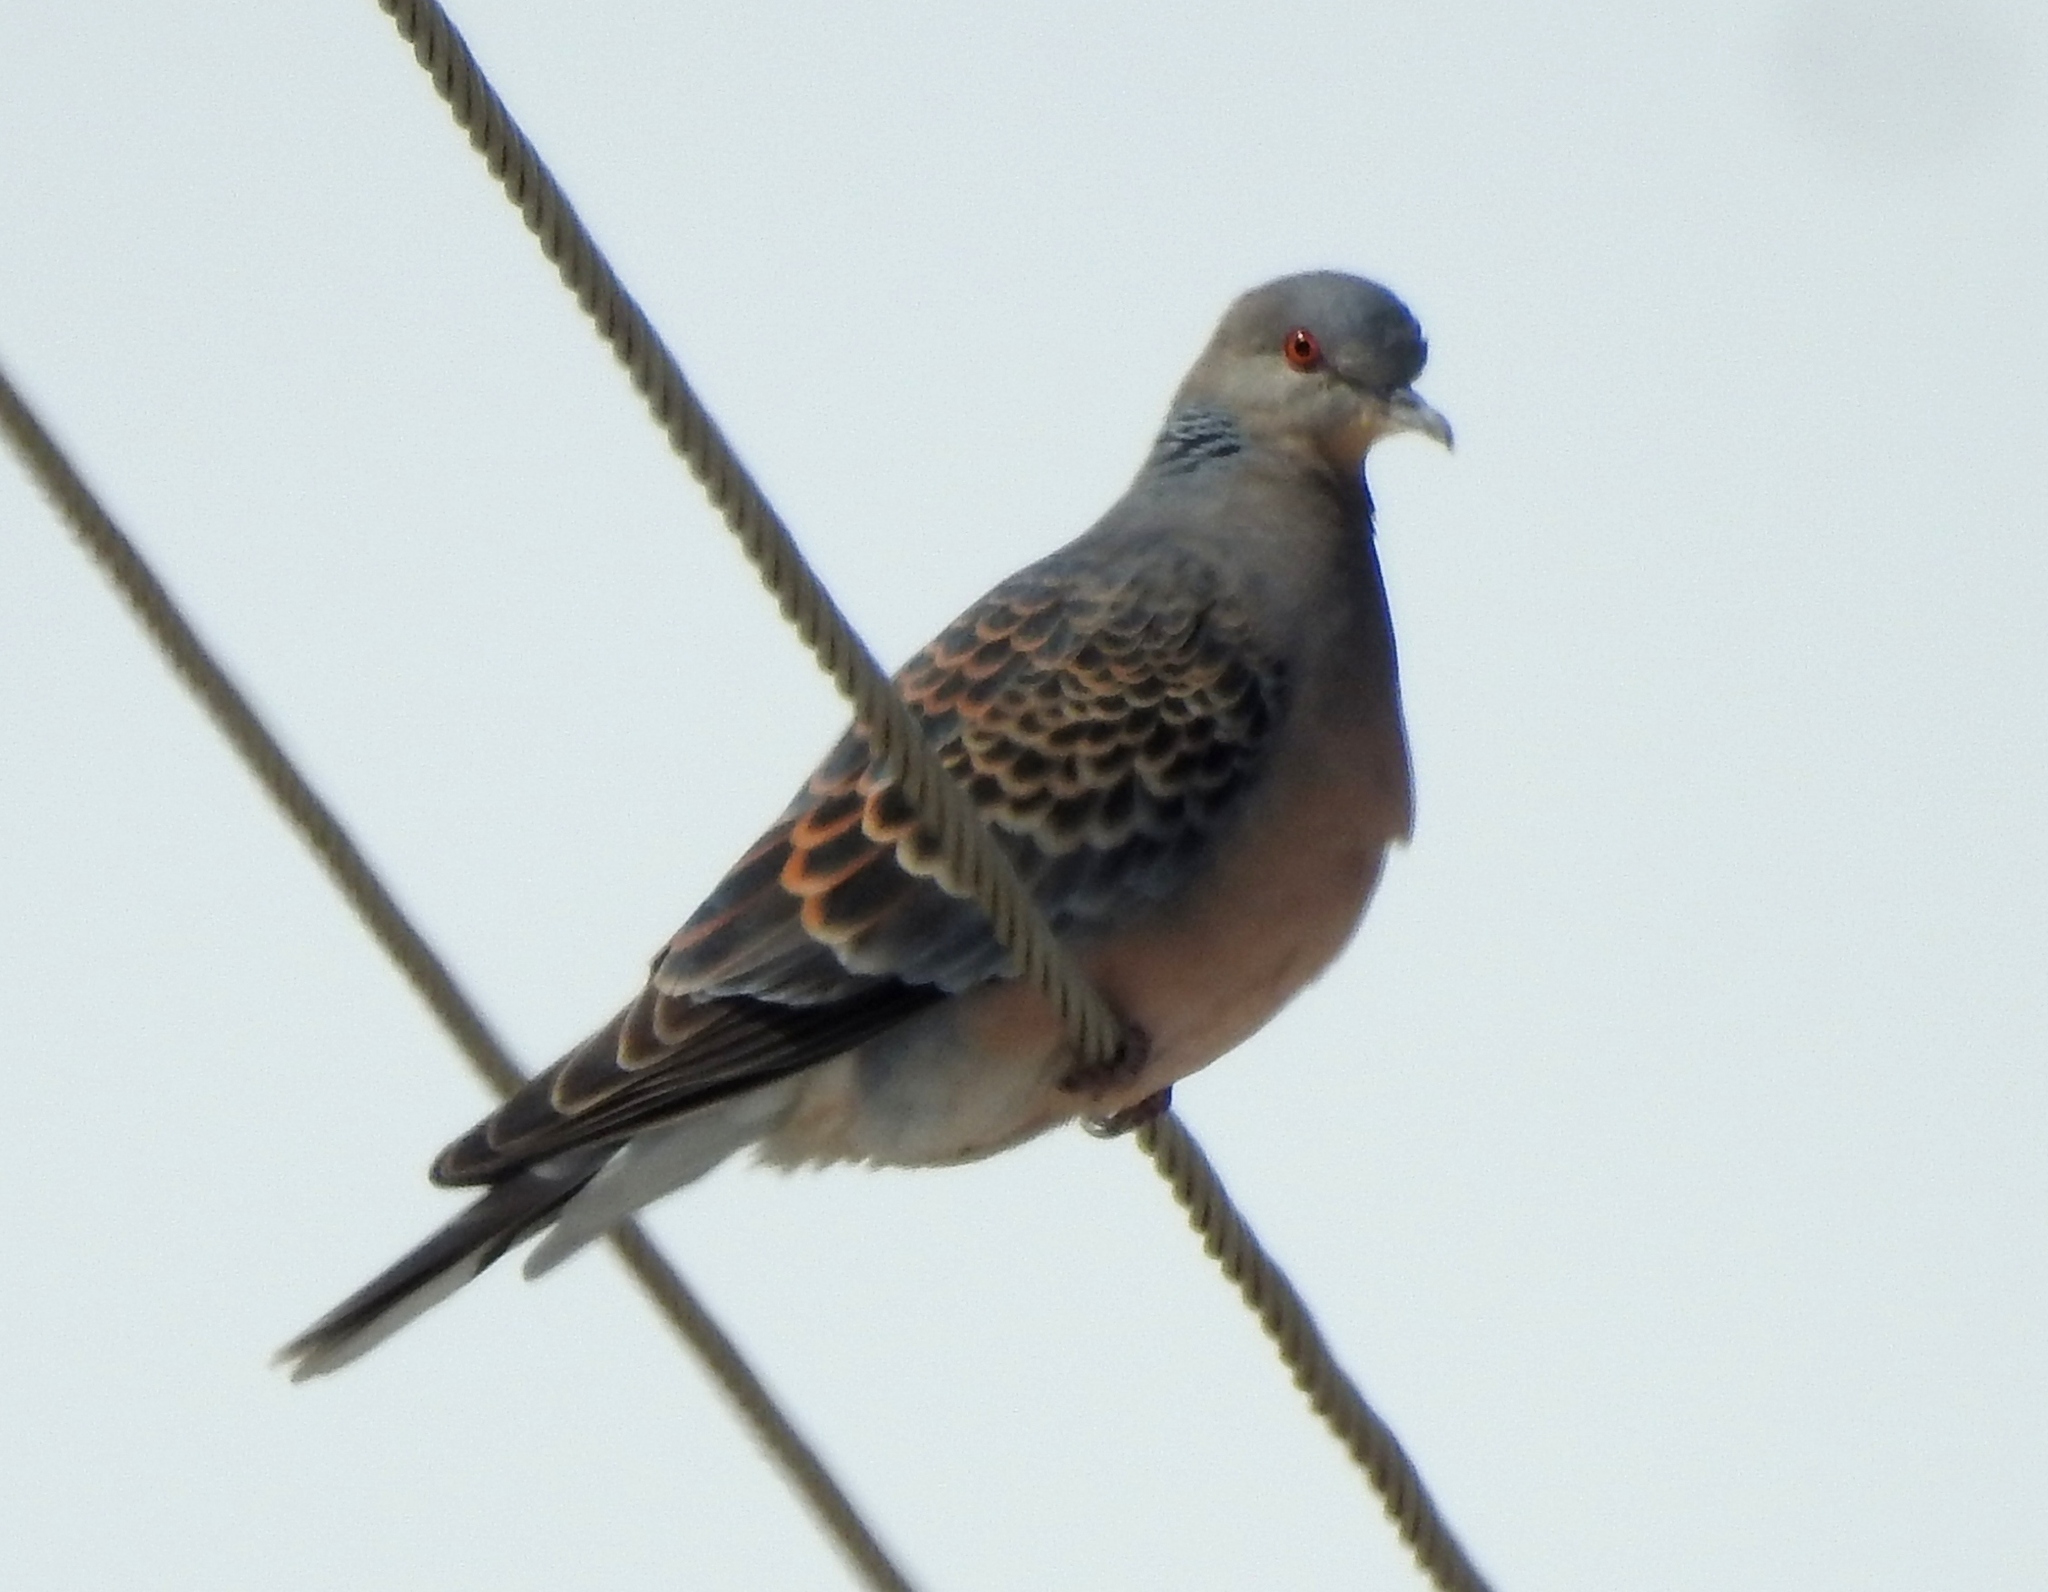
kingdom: Animalia
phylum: Chordata
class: Aves
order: Columbiformes
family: Columbidae
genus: Streptopelia
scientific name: Streptopelia orientalis
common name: Oriental turtle dove
